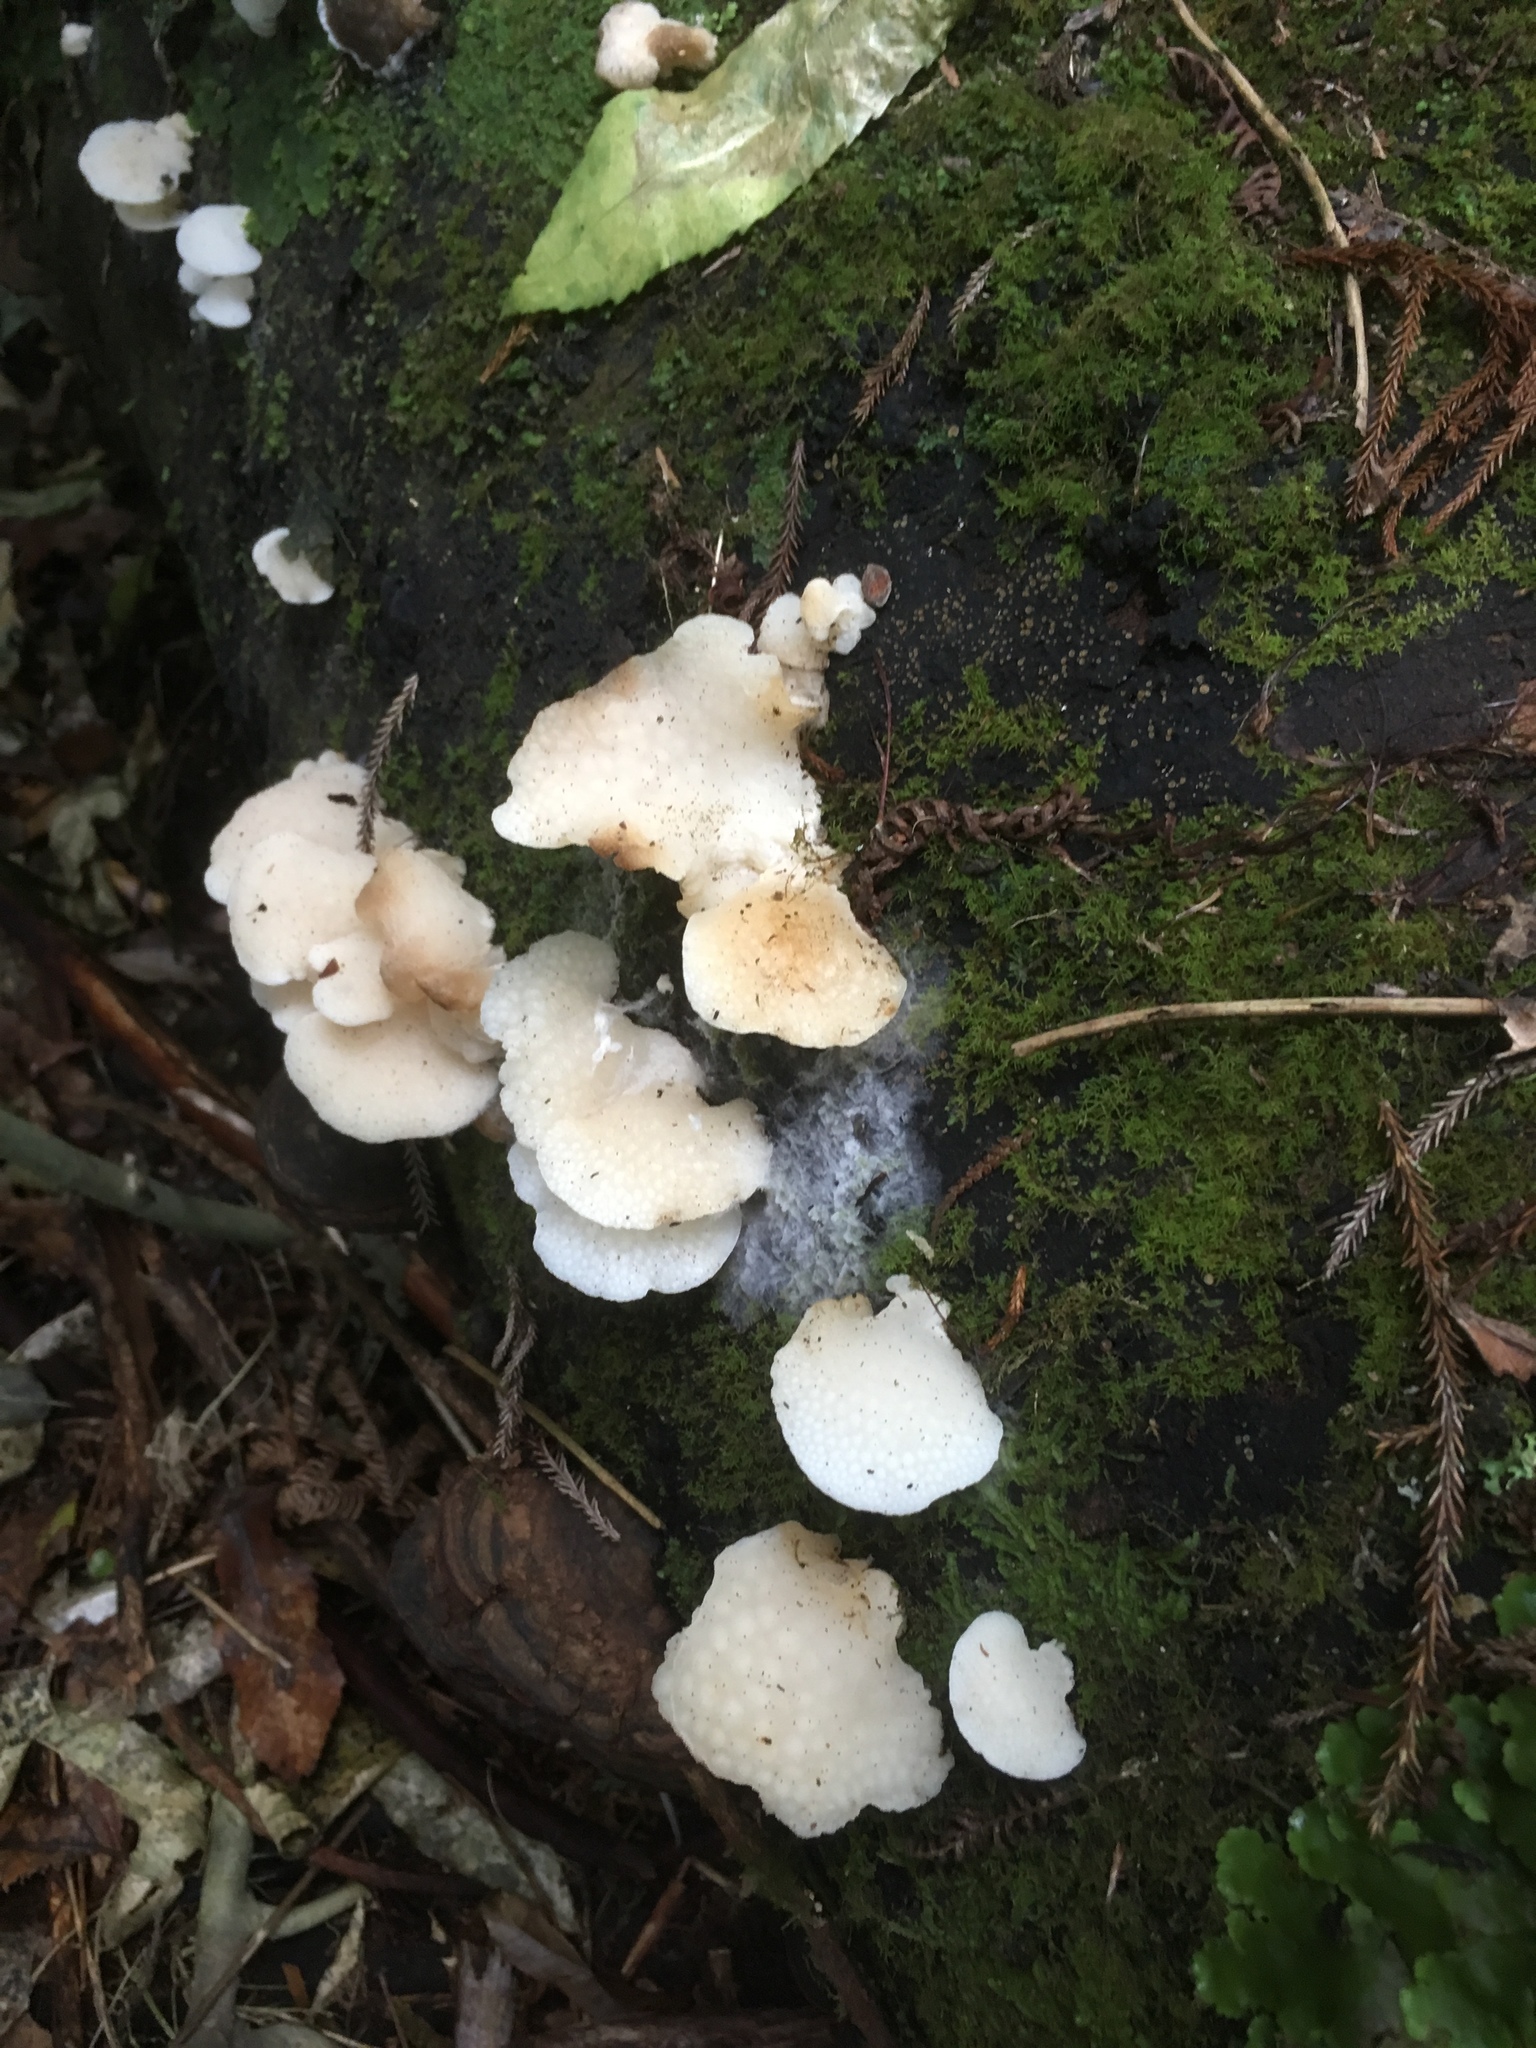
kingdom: Fungi
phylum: Basidiomycota
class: Agaricomycetes
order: Agaricales
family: Mycenaceae
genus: Favolaschia
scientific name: Favolaschia pustulosa
